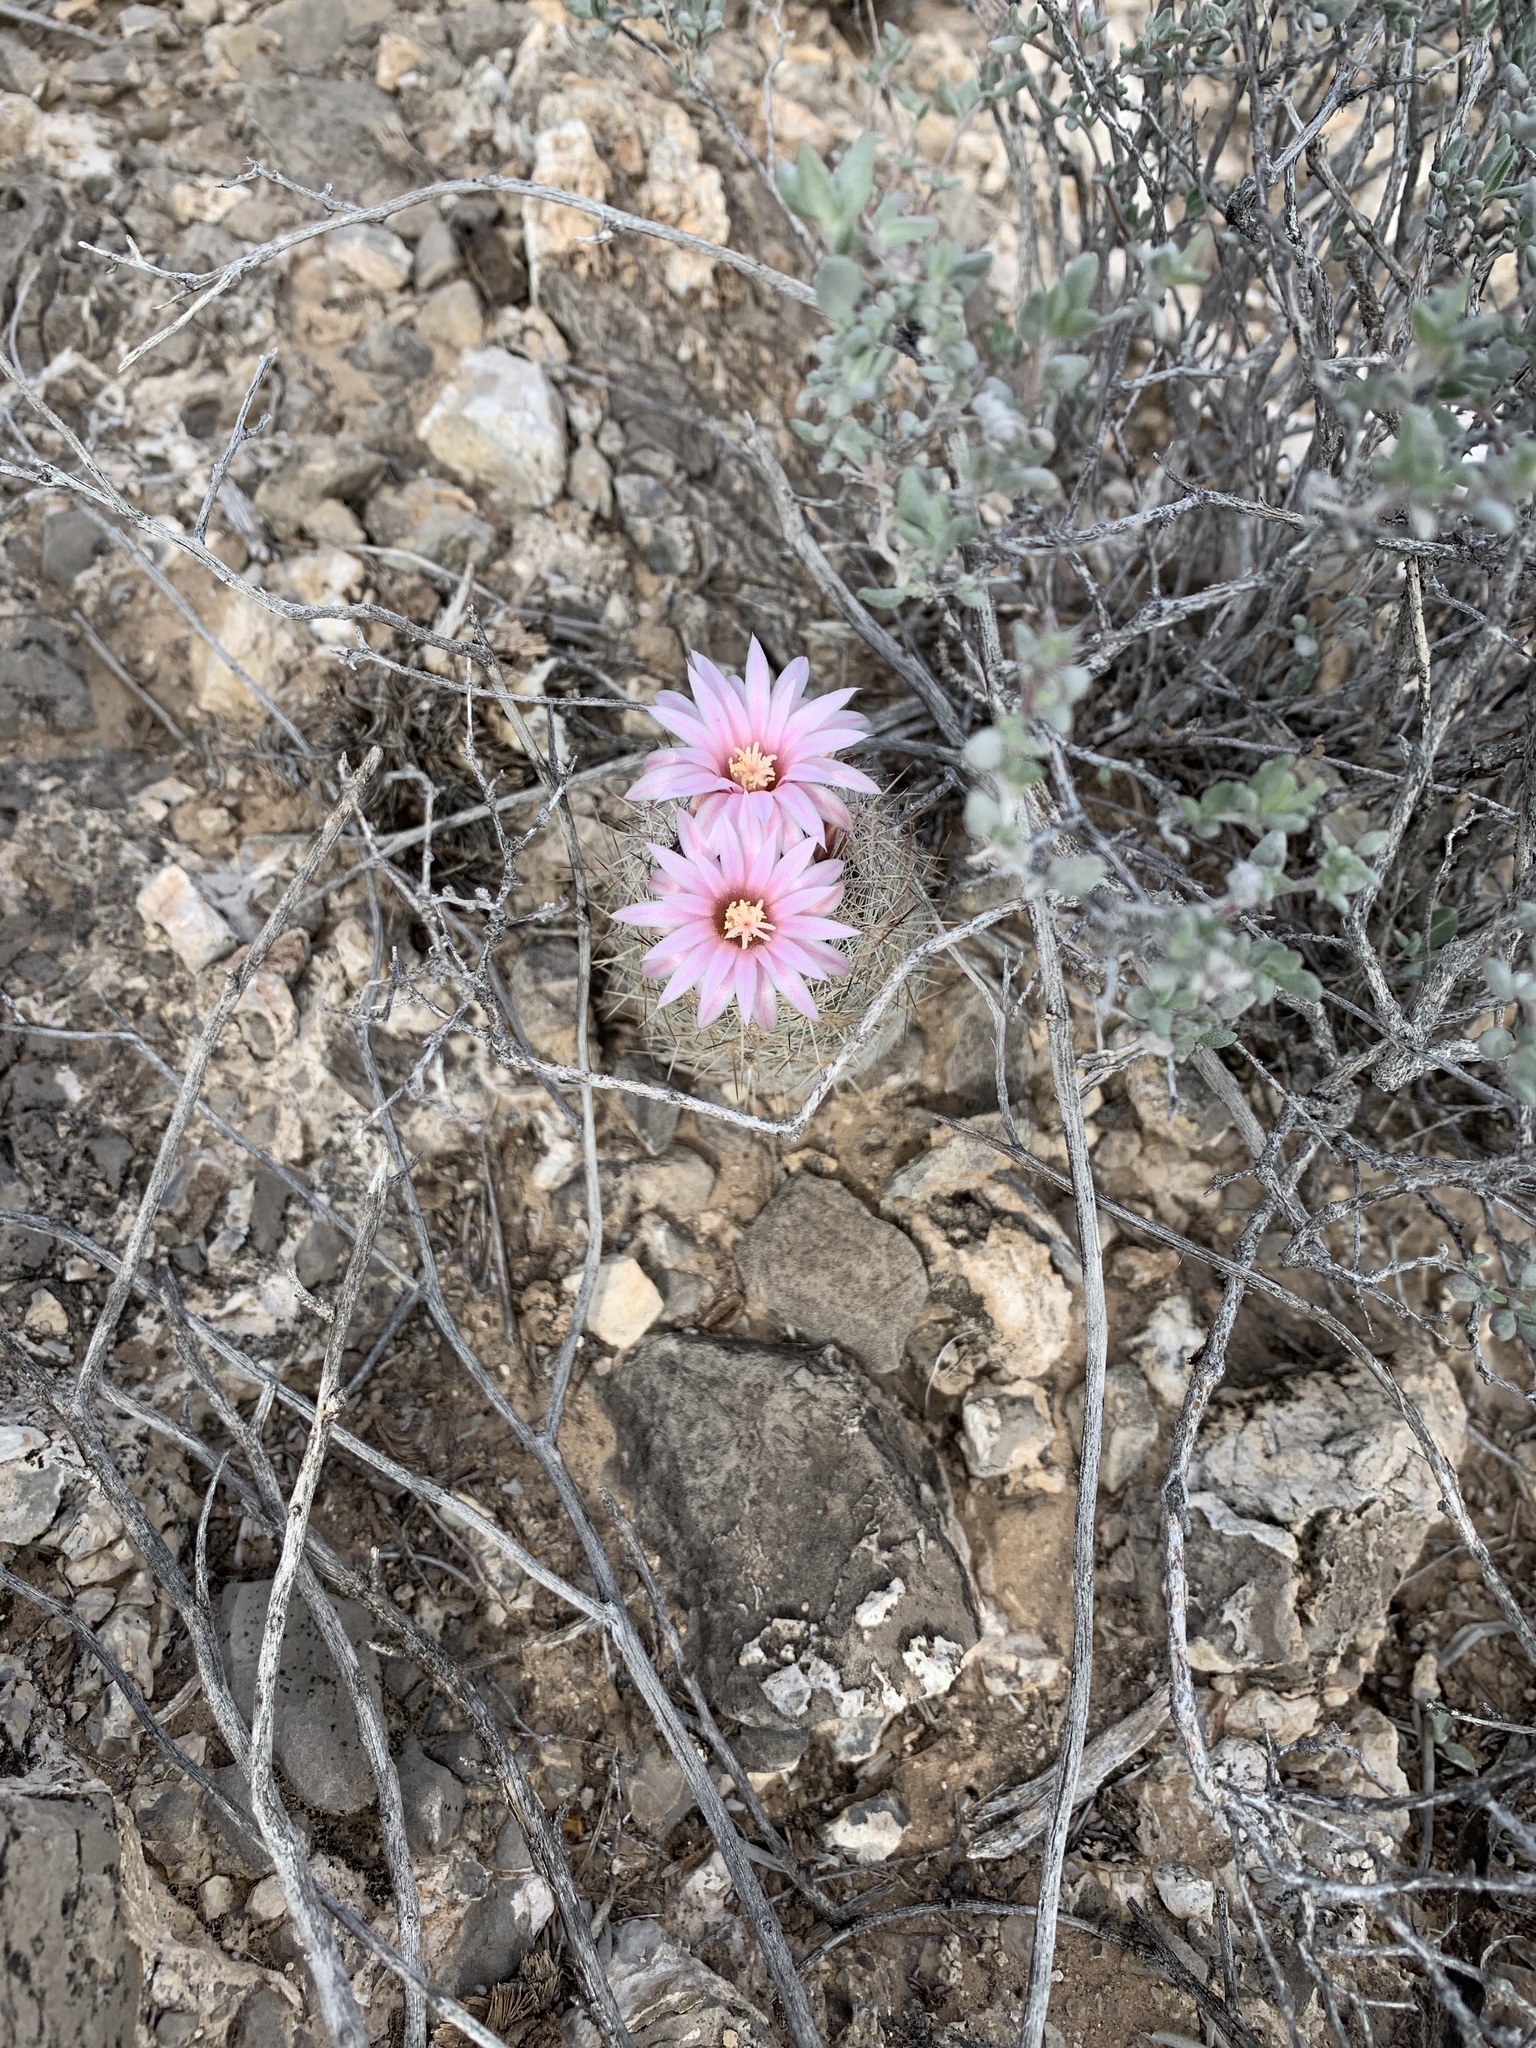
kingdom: Plantae
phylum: Tracheophyta
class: Magnoliopsida
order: Caryophyllales
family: Cactaceae
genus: Pelecyphora
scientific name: Pelecyphora tuberculosa
